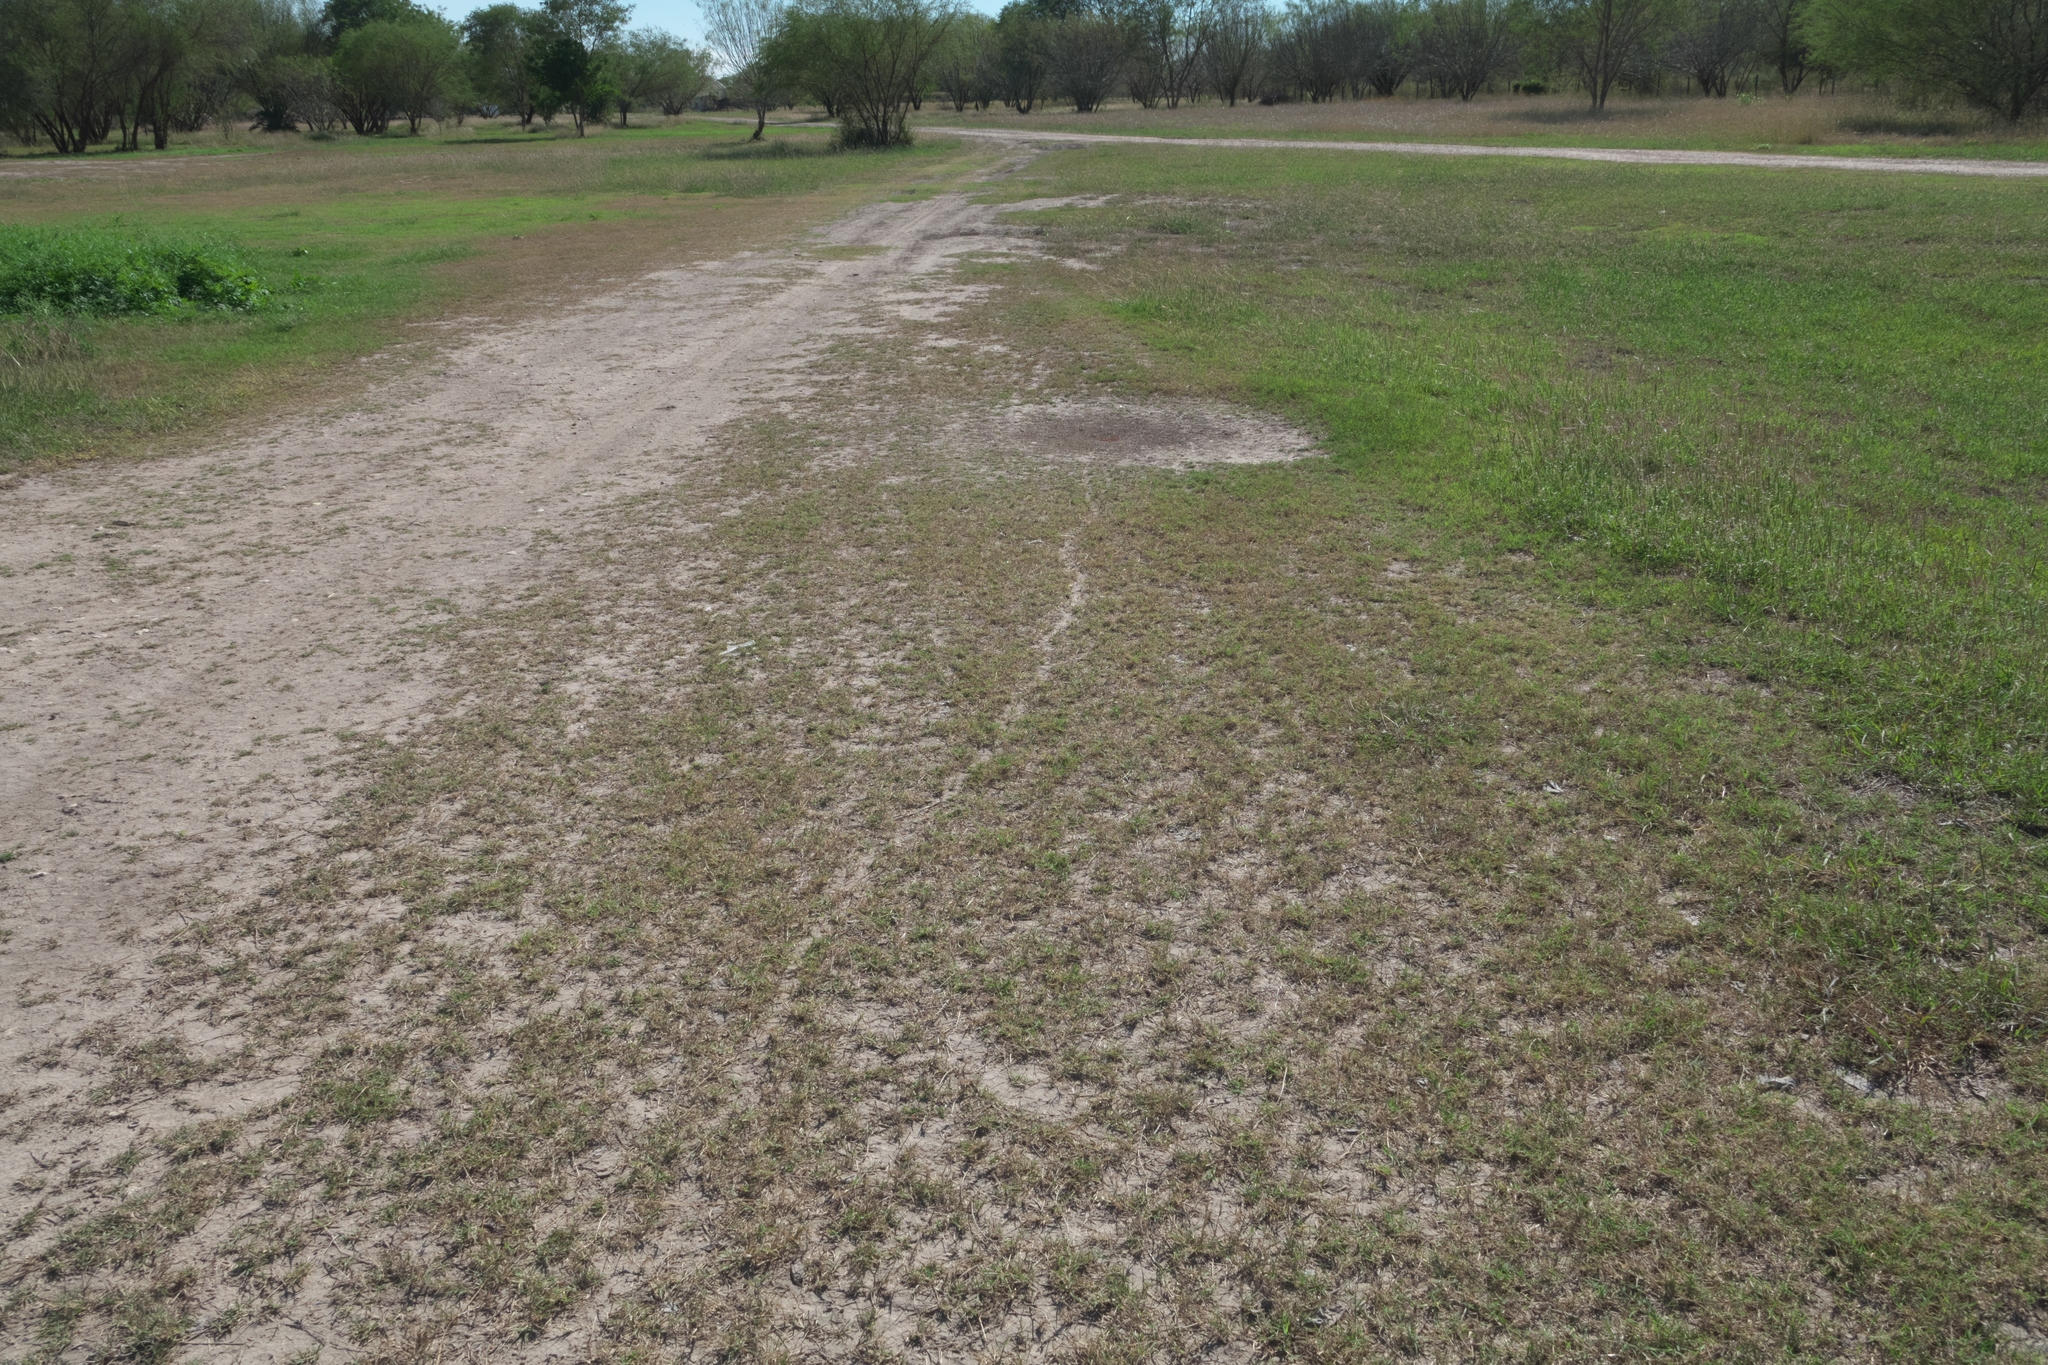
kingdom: Animalia
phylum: Arthropoda
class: Insecta
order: Hymenoptera
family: Formicidae
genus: Pogonomyrmex
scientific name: Pogonomyrmex barbatus
